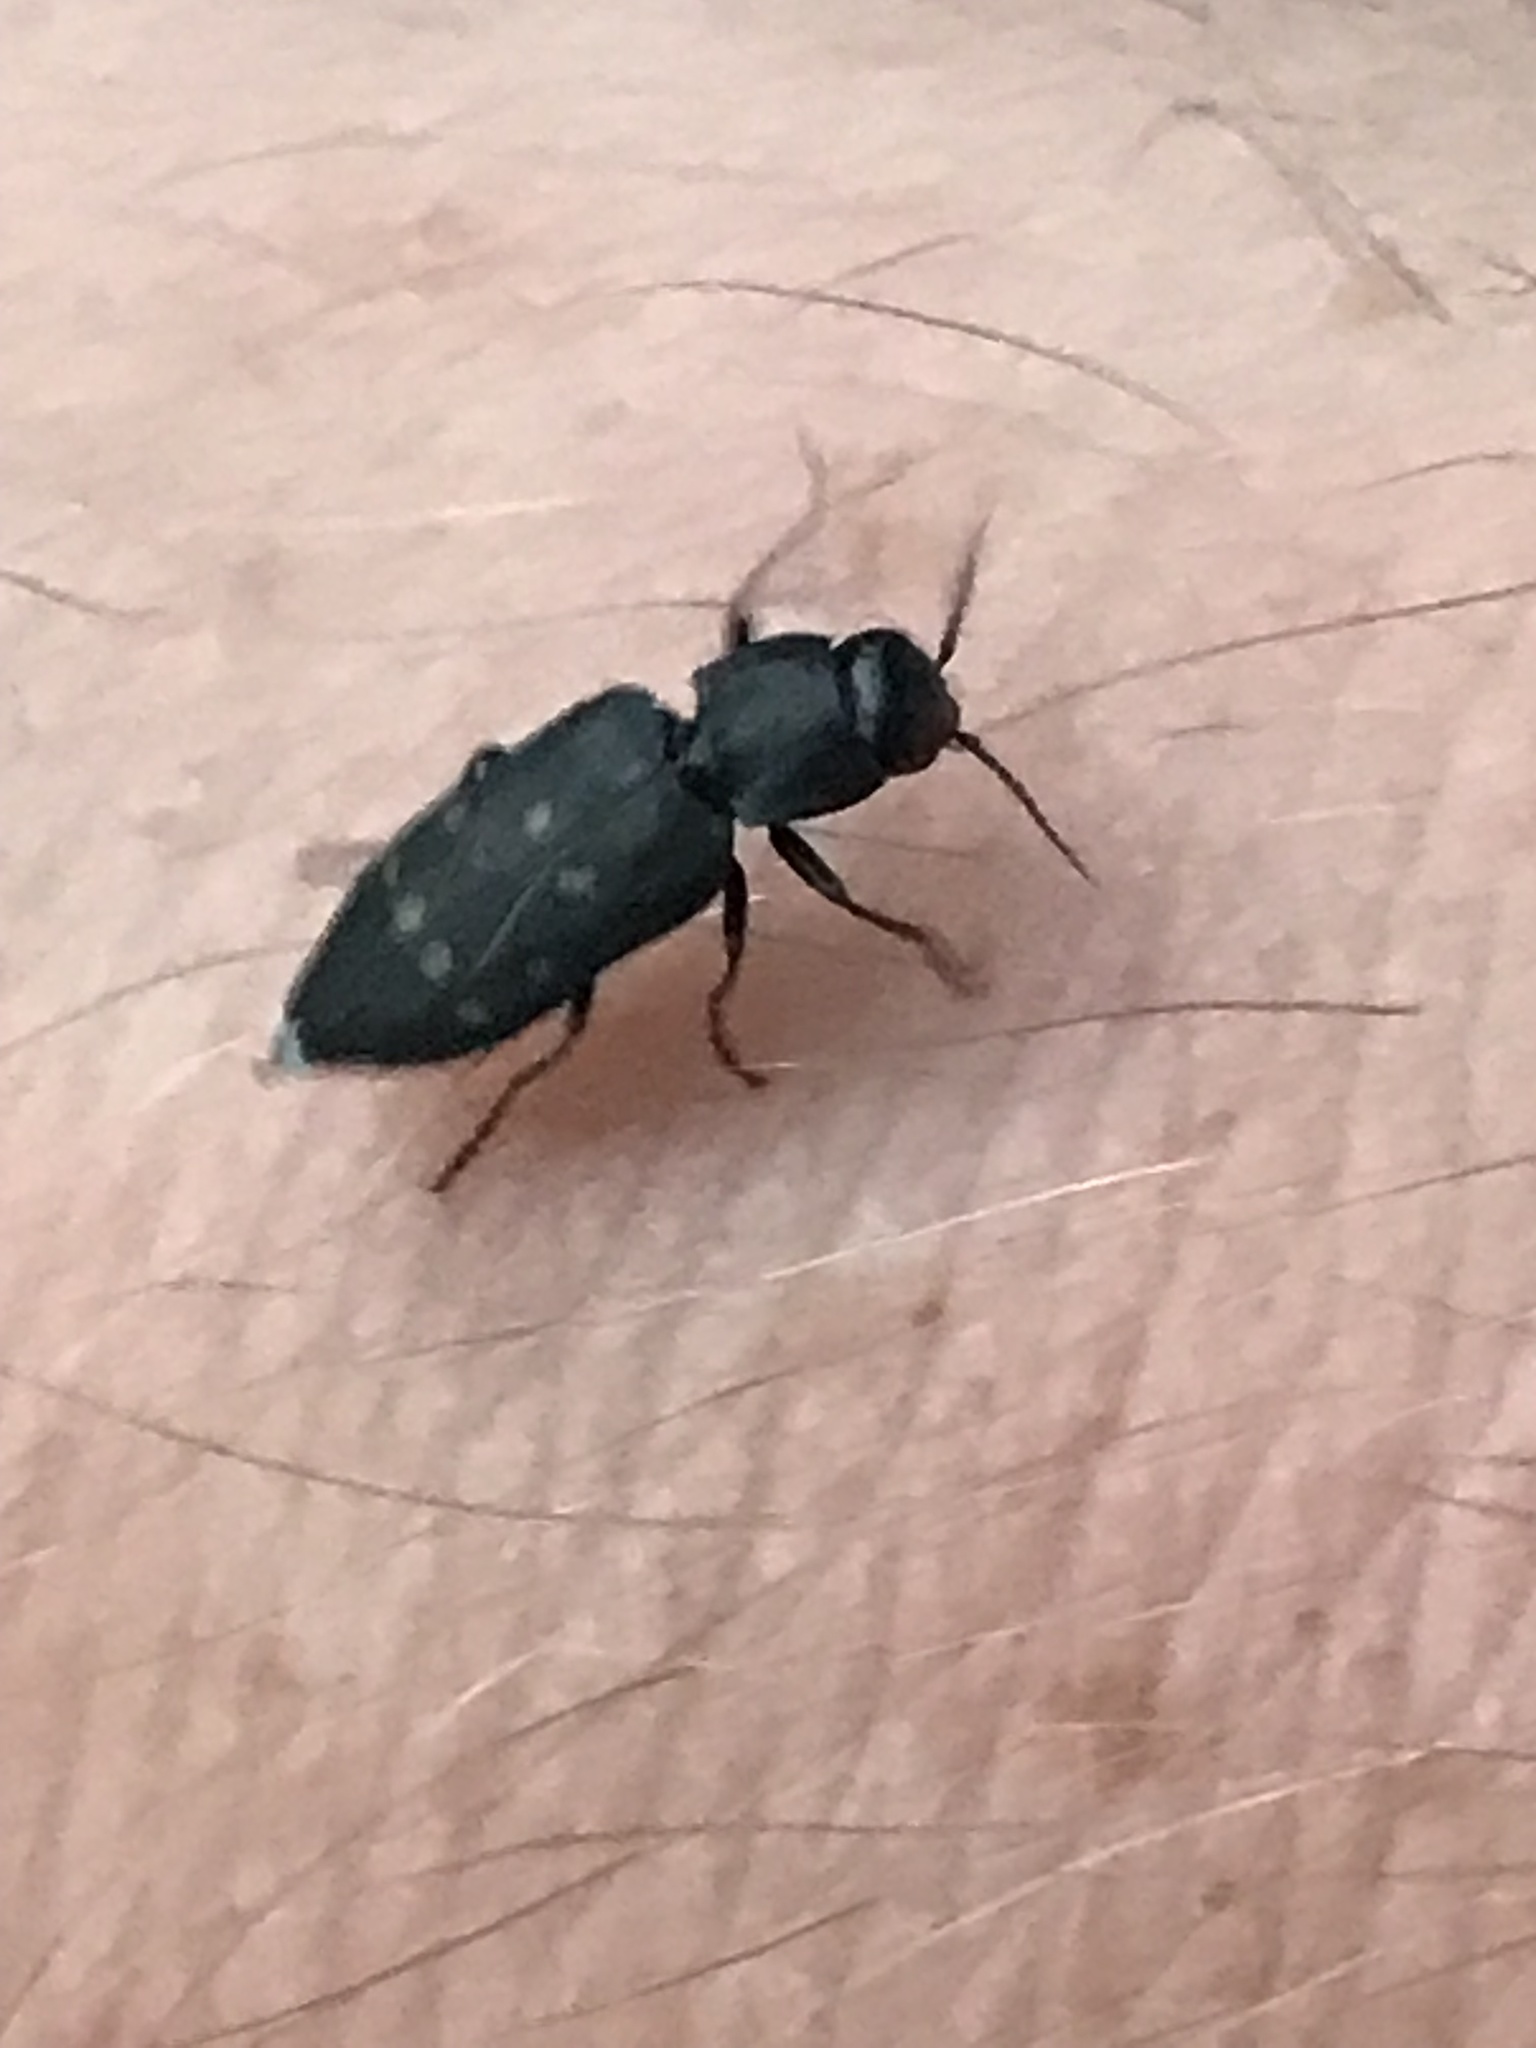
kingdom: Animalia
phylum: Arthropoda
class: Insecta
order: Coleoptera
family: Buprestidae
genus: Melanophila
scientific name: Melanophila consputa
